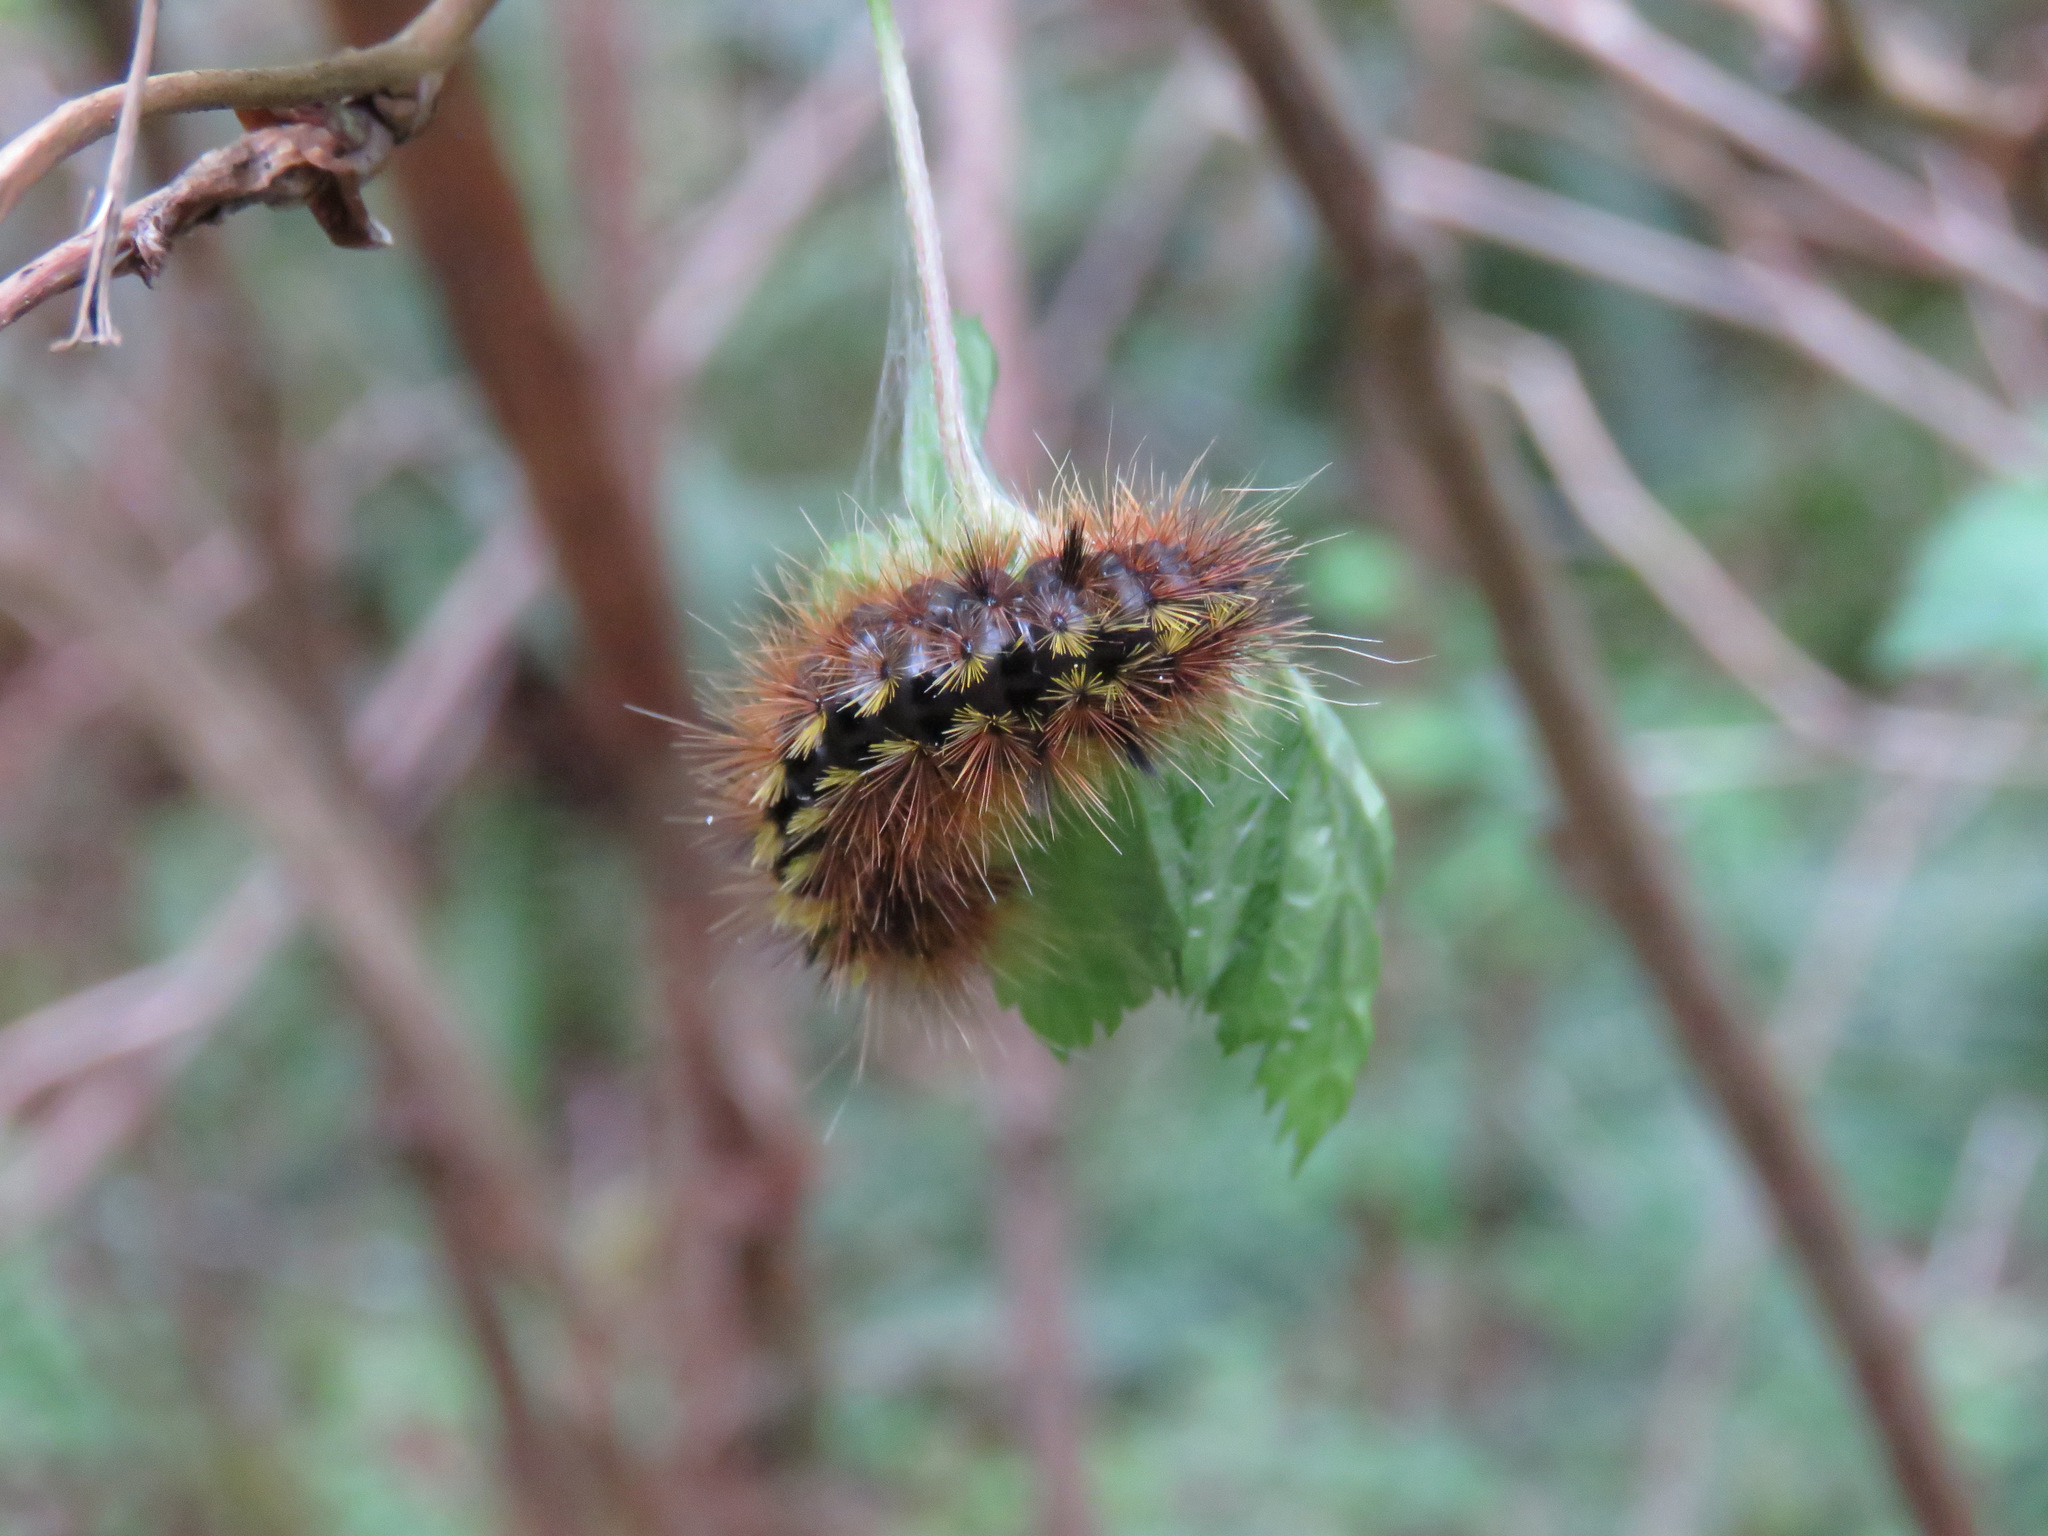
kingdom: Animalia
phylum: Arthropoda
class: Insecta
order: Lepidoptera
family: Erebidae
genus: Lophocampa
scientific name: Lophocampa argentata
